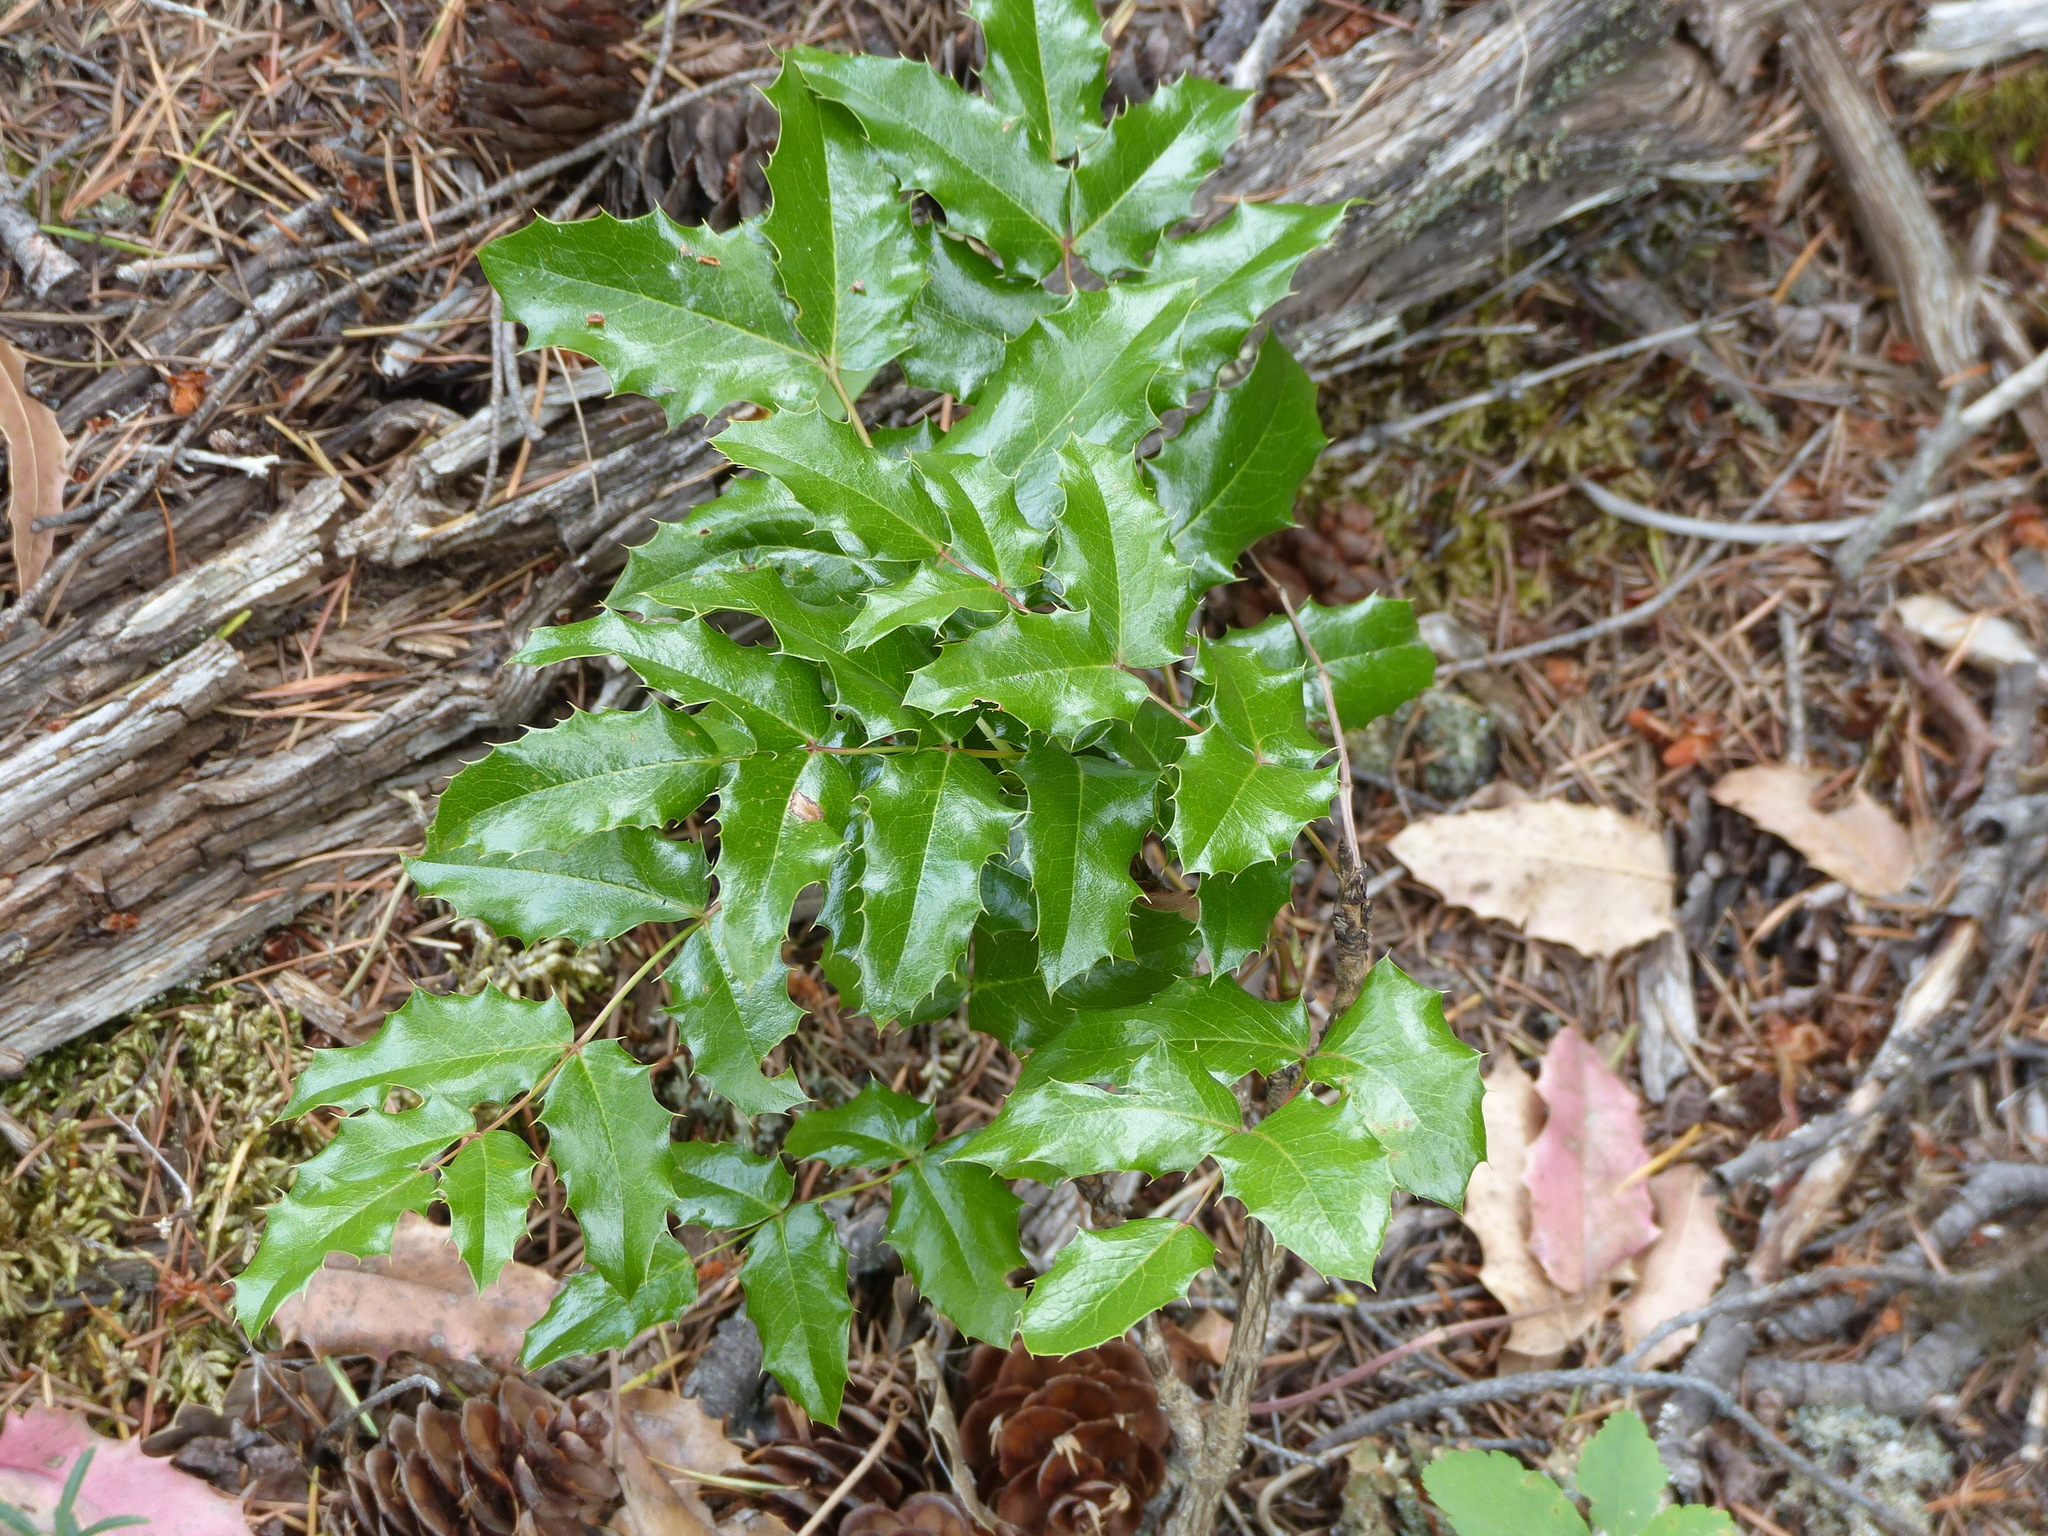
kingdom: Plantae
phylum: Tracheophyta
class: Magnoliopsida
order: Ranunculales
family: Berberidaceae
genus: Mahonia
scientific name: Mahonia aquifolium
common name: Oregon-grape
